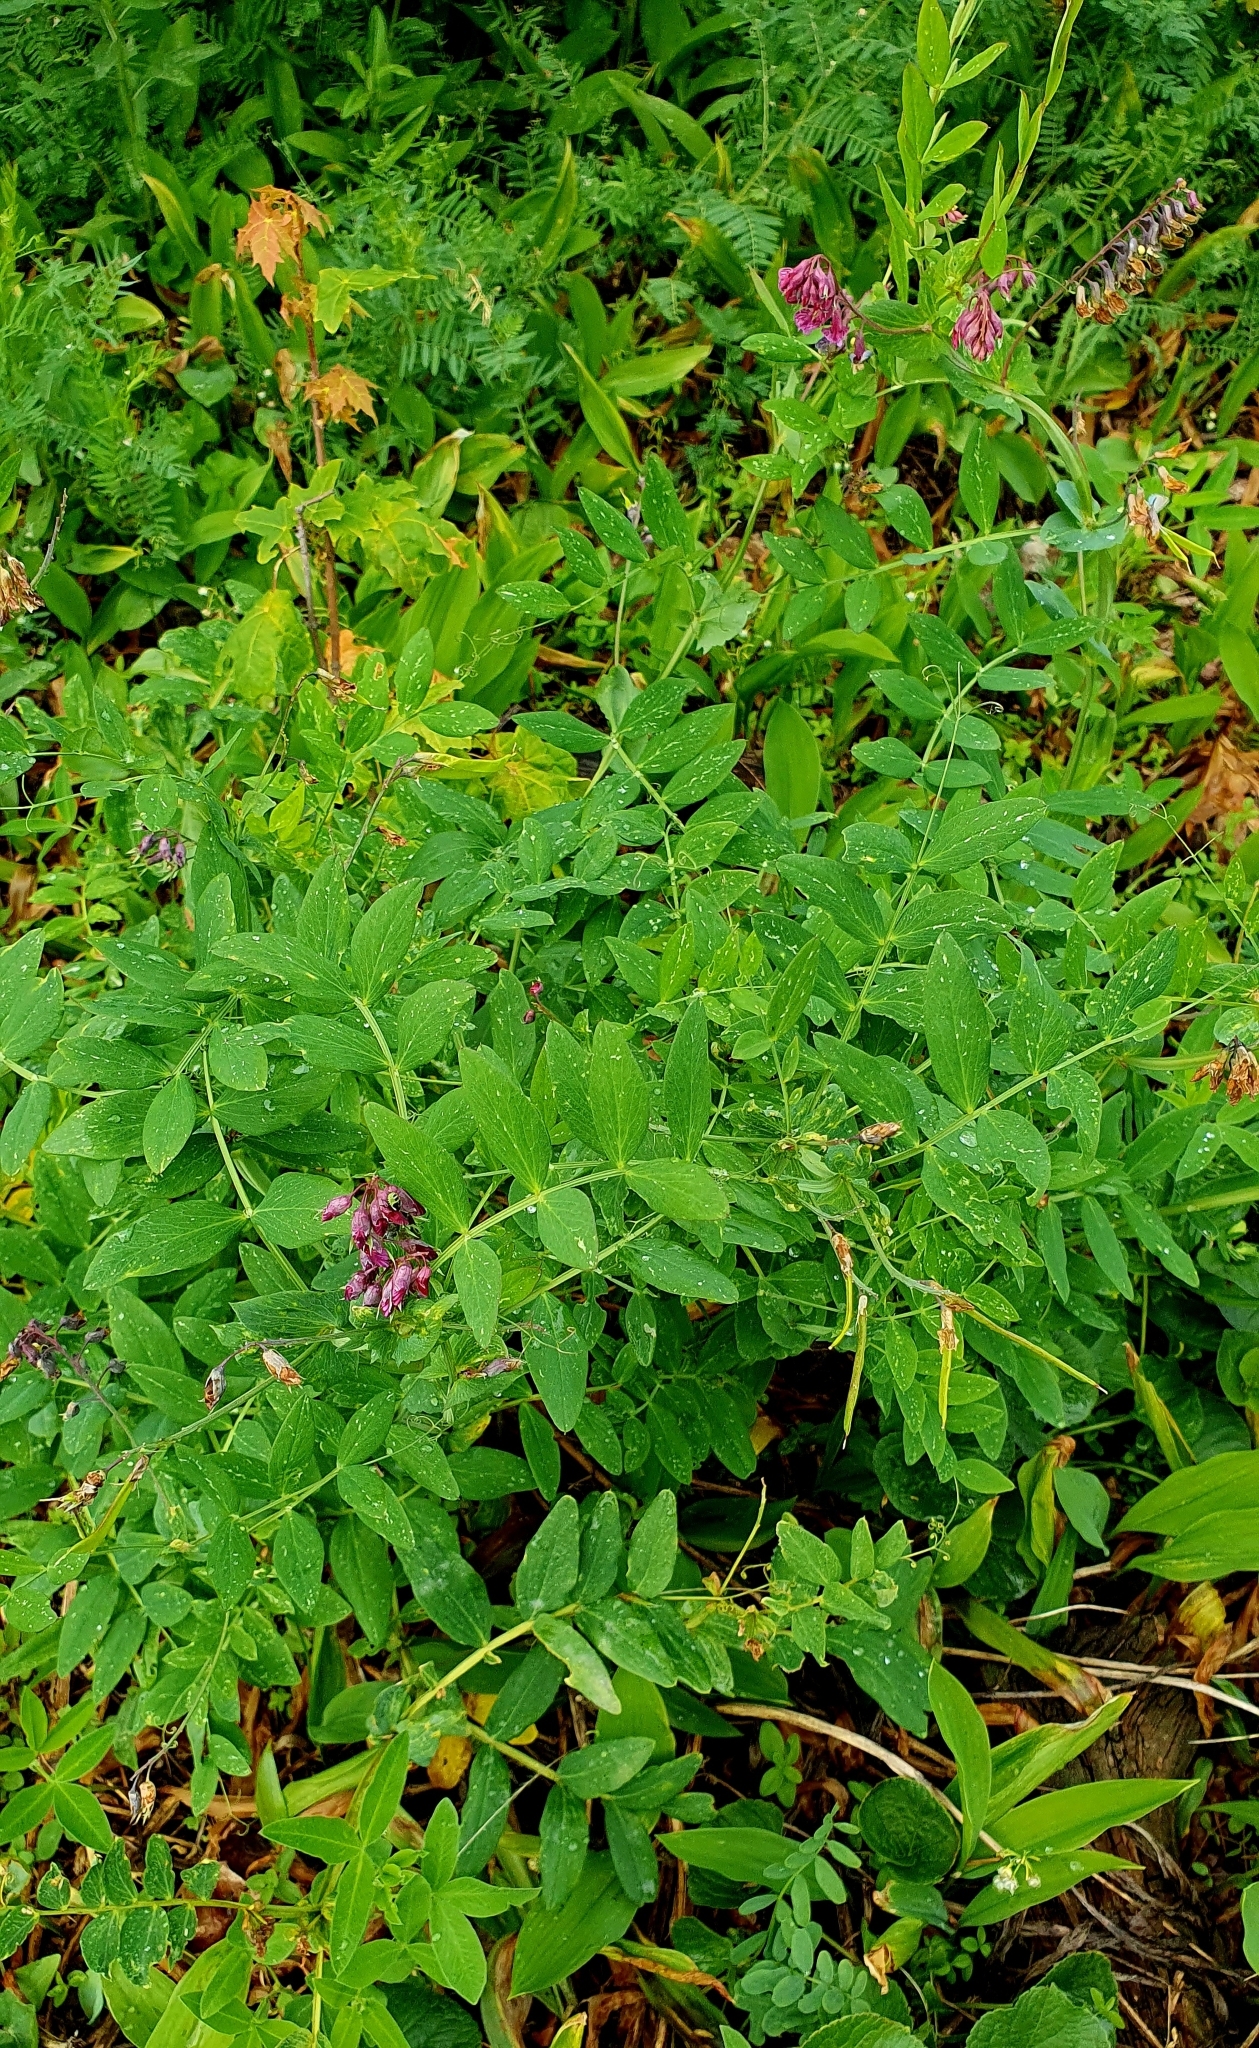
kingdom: Plantae
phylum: Tracheophyta
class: Magnoliopsida
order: Fabales
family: Fabaceae
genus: Lathyrus
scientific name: Lathyrus pisiformis
